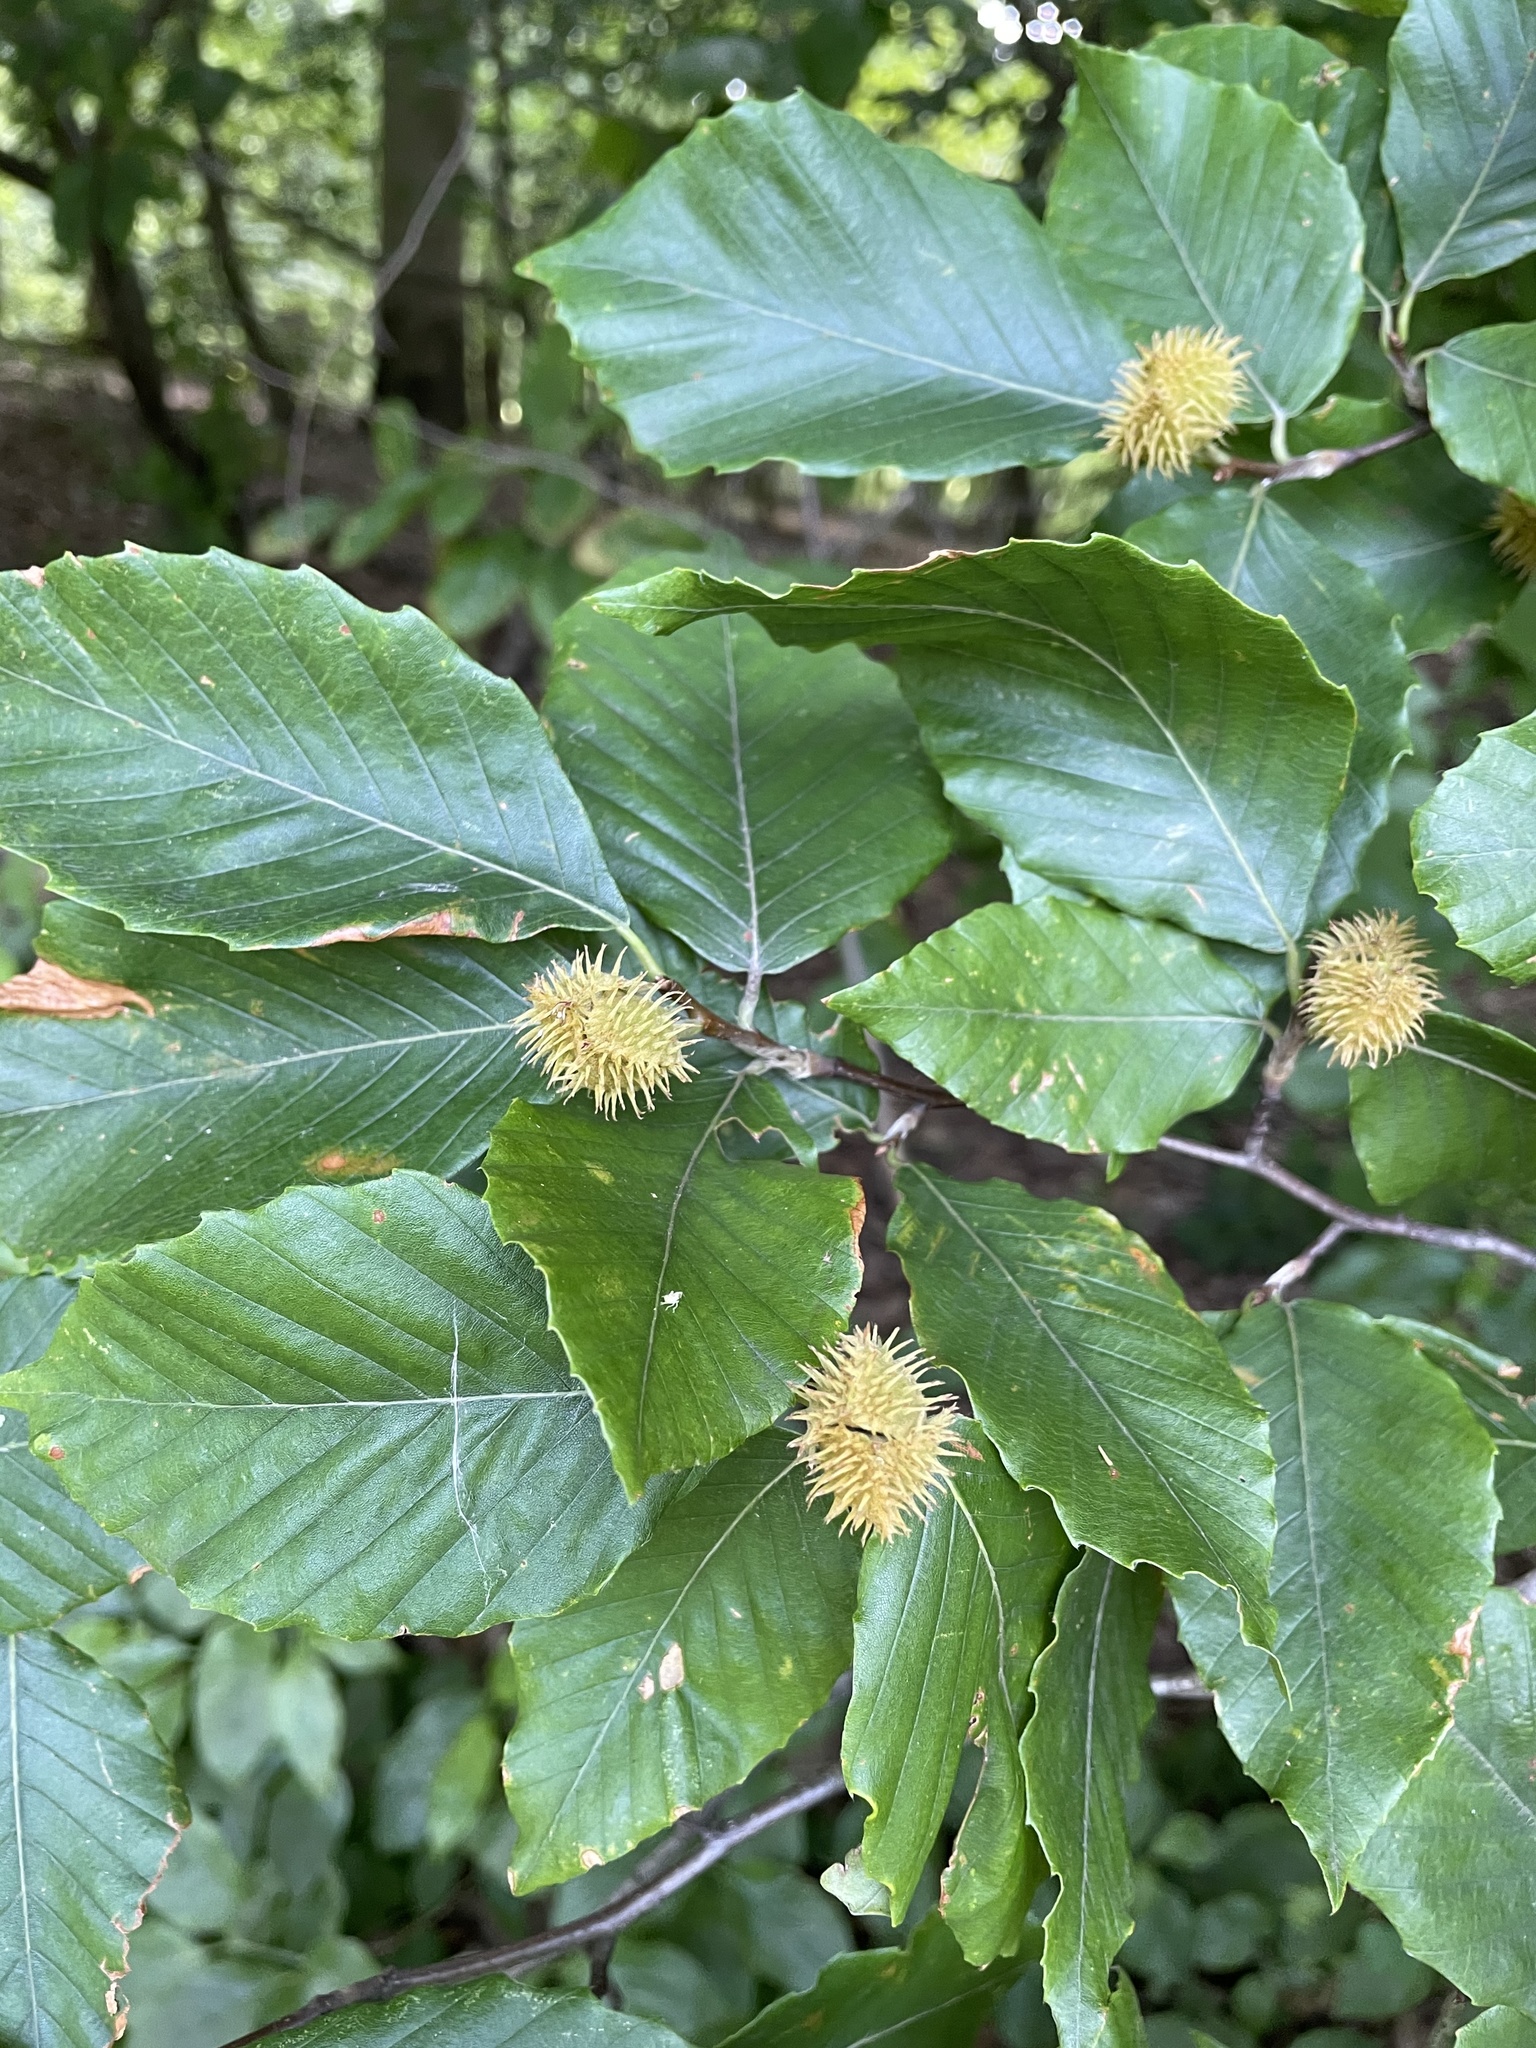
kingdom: Plantae
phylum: Tracheophyta
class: Magnoliopsida
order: Fagales
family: Fagaceae
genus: Fagus
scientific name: Fagus grandifolia
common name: American beech
